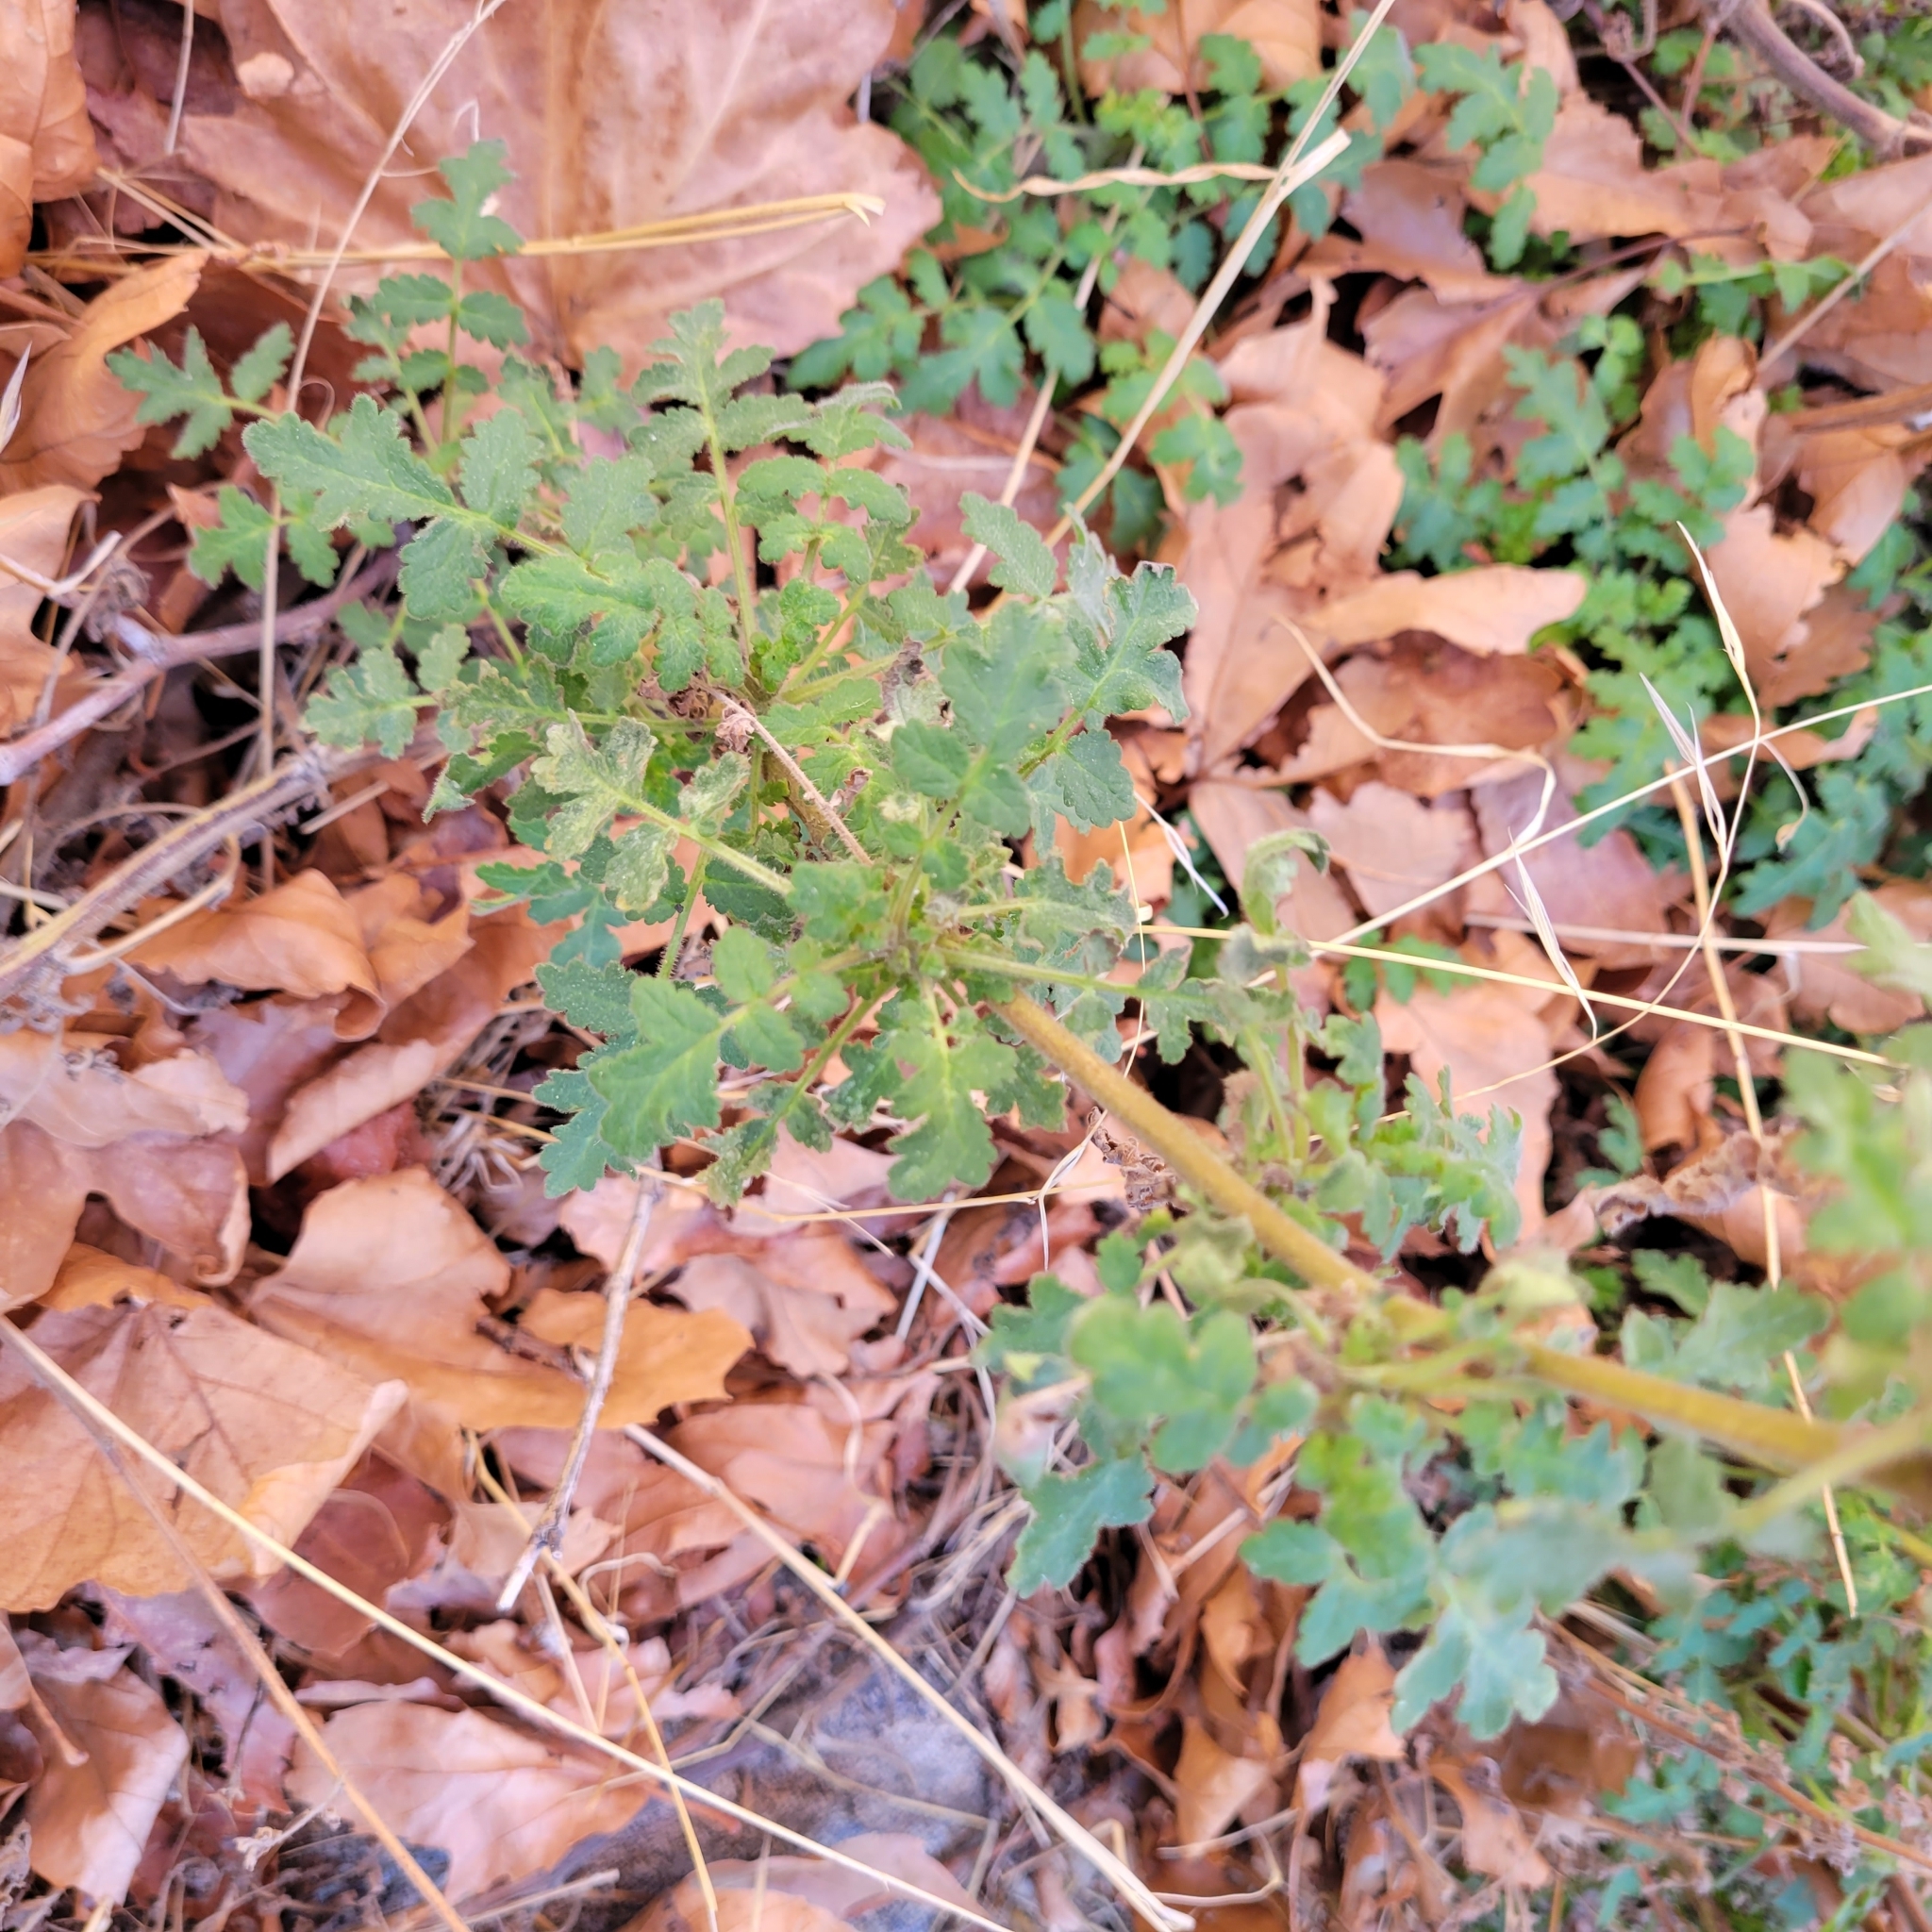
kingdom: Plantae
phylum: Tracheophyta
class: Magnoliopsida
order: Boraginales
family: Hydrophyllaceae
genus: Phacelia
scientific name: Phacelia ramosissima
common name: Branching phacelia
